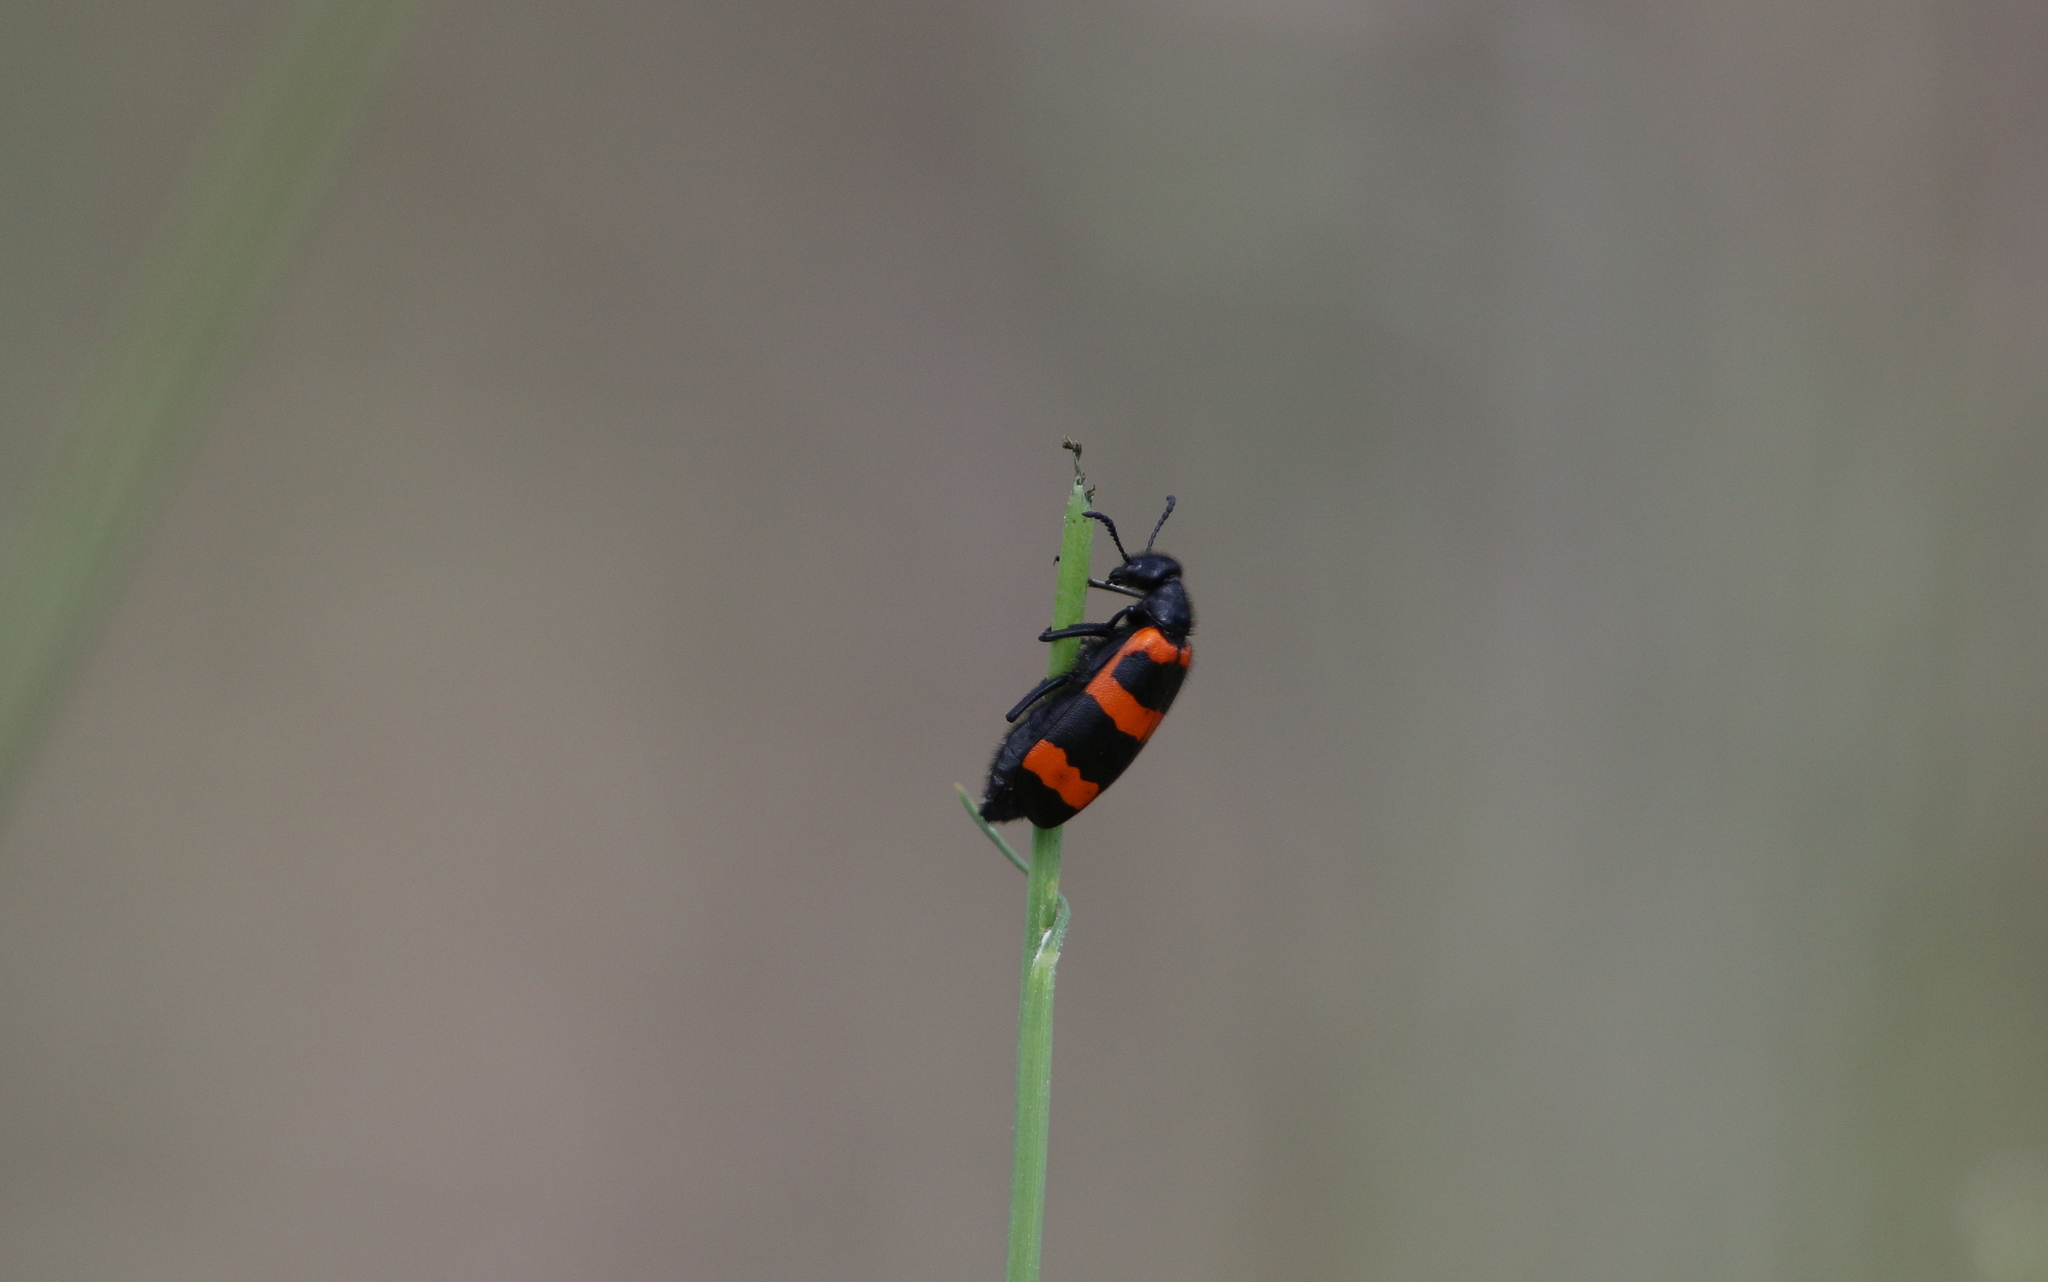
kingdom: Animalia
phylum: Arthropoda
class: Insecta
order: Coleoptera
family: Meloidae
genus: Mylabris
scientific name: Mylabris cincta
